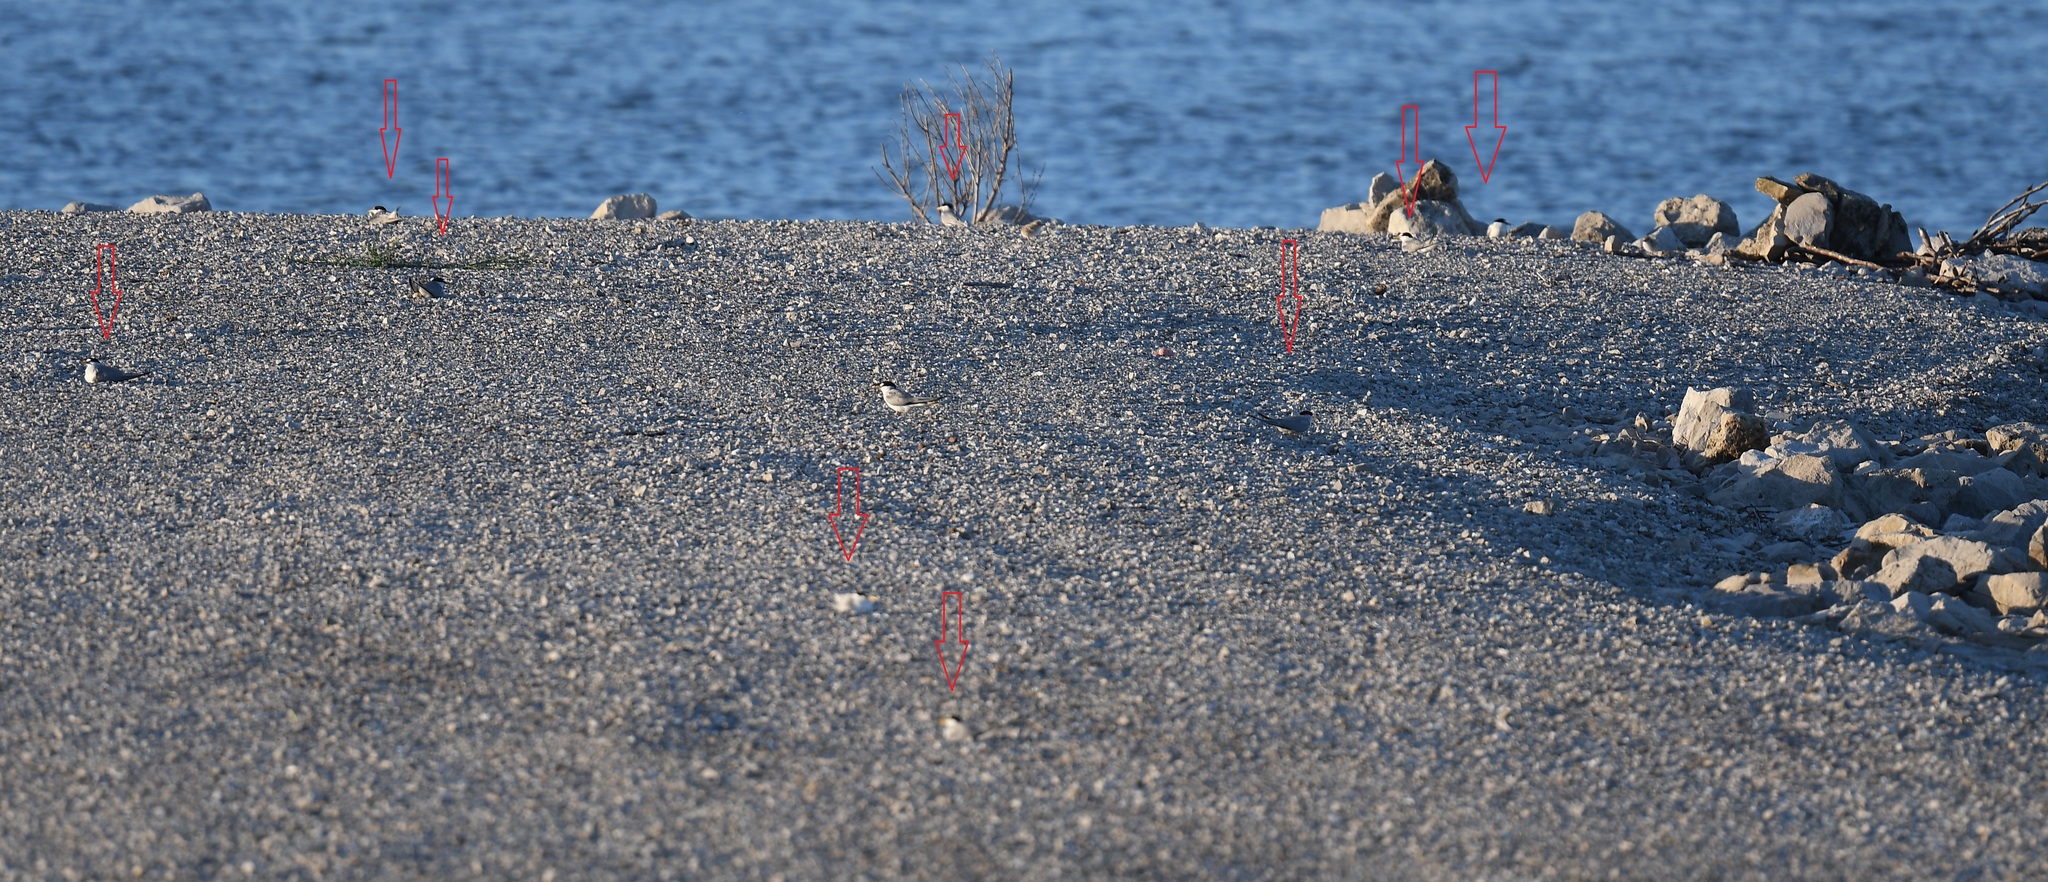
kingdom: Animalia
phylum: Chordata
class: Aves
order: Charadriiformes
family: Laridae
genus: Sternula
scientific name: Sternula antillarum
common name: Least tern
